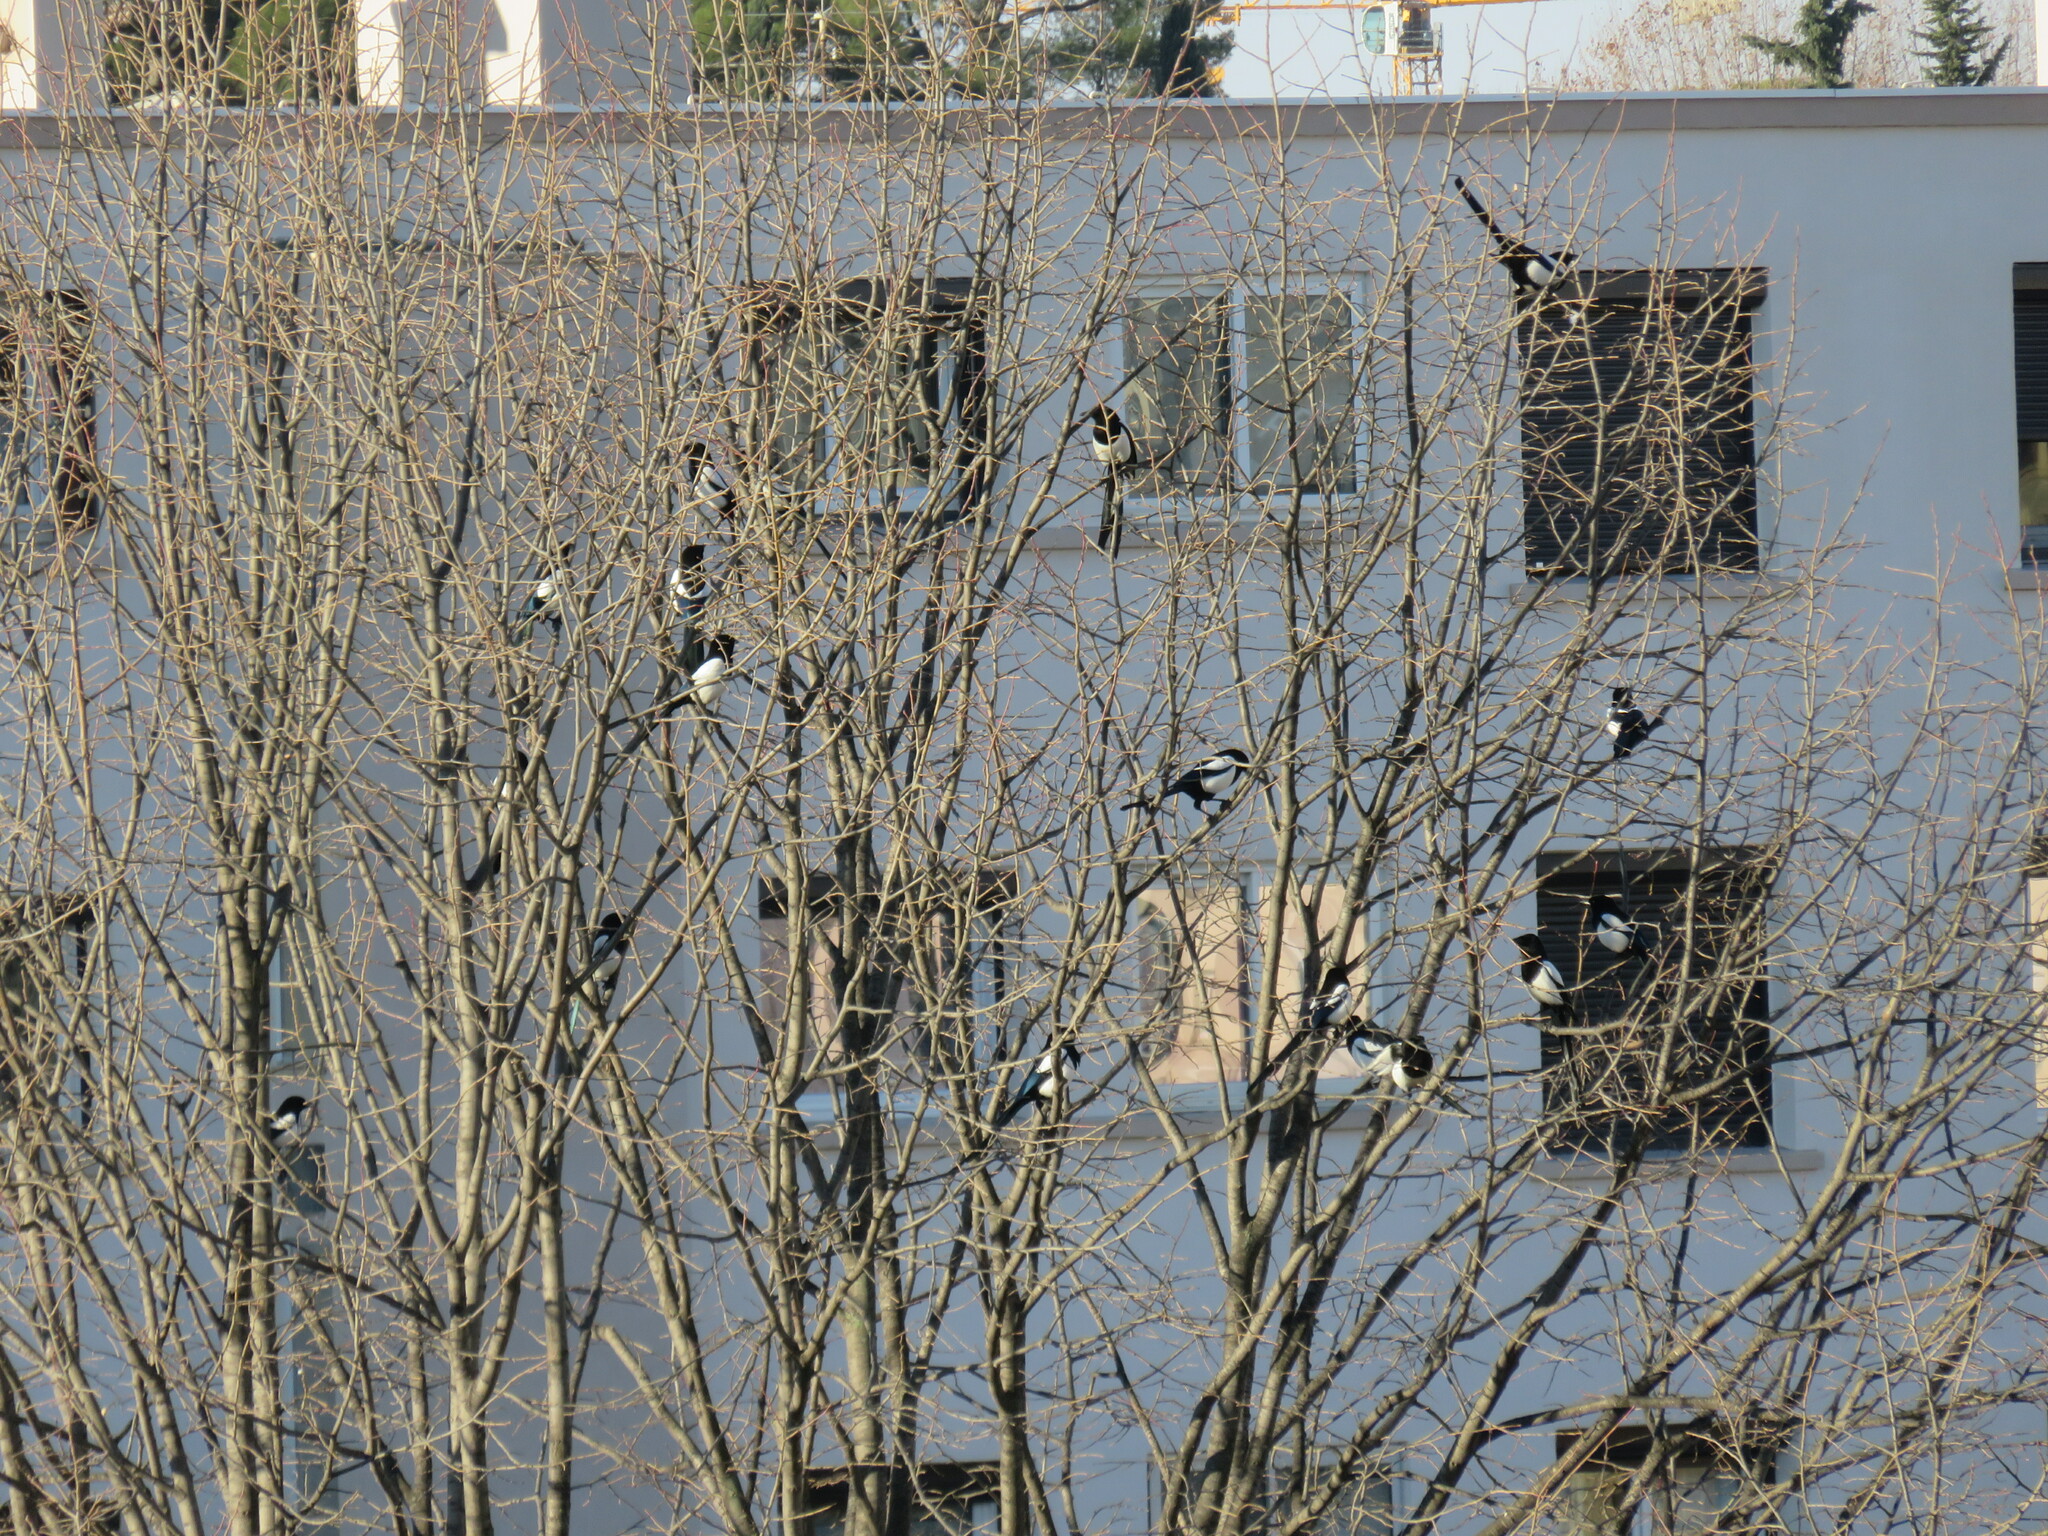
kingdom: Animalia
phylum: Chordata
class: Aves
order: Passeriformes
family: Corvidae
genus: Pica
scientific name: Pica pica
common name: Eurasian magpie
